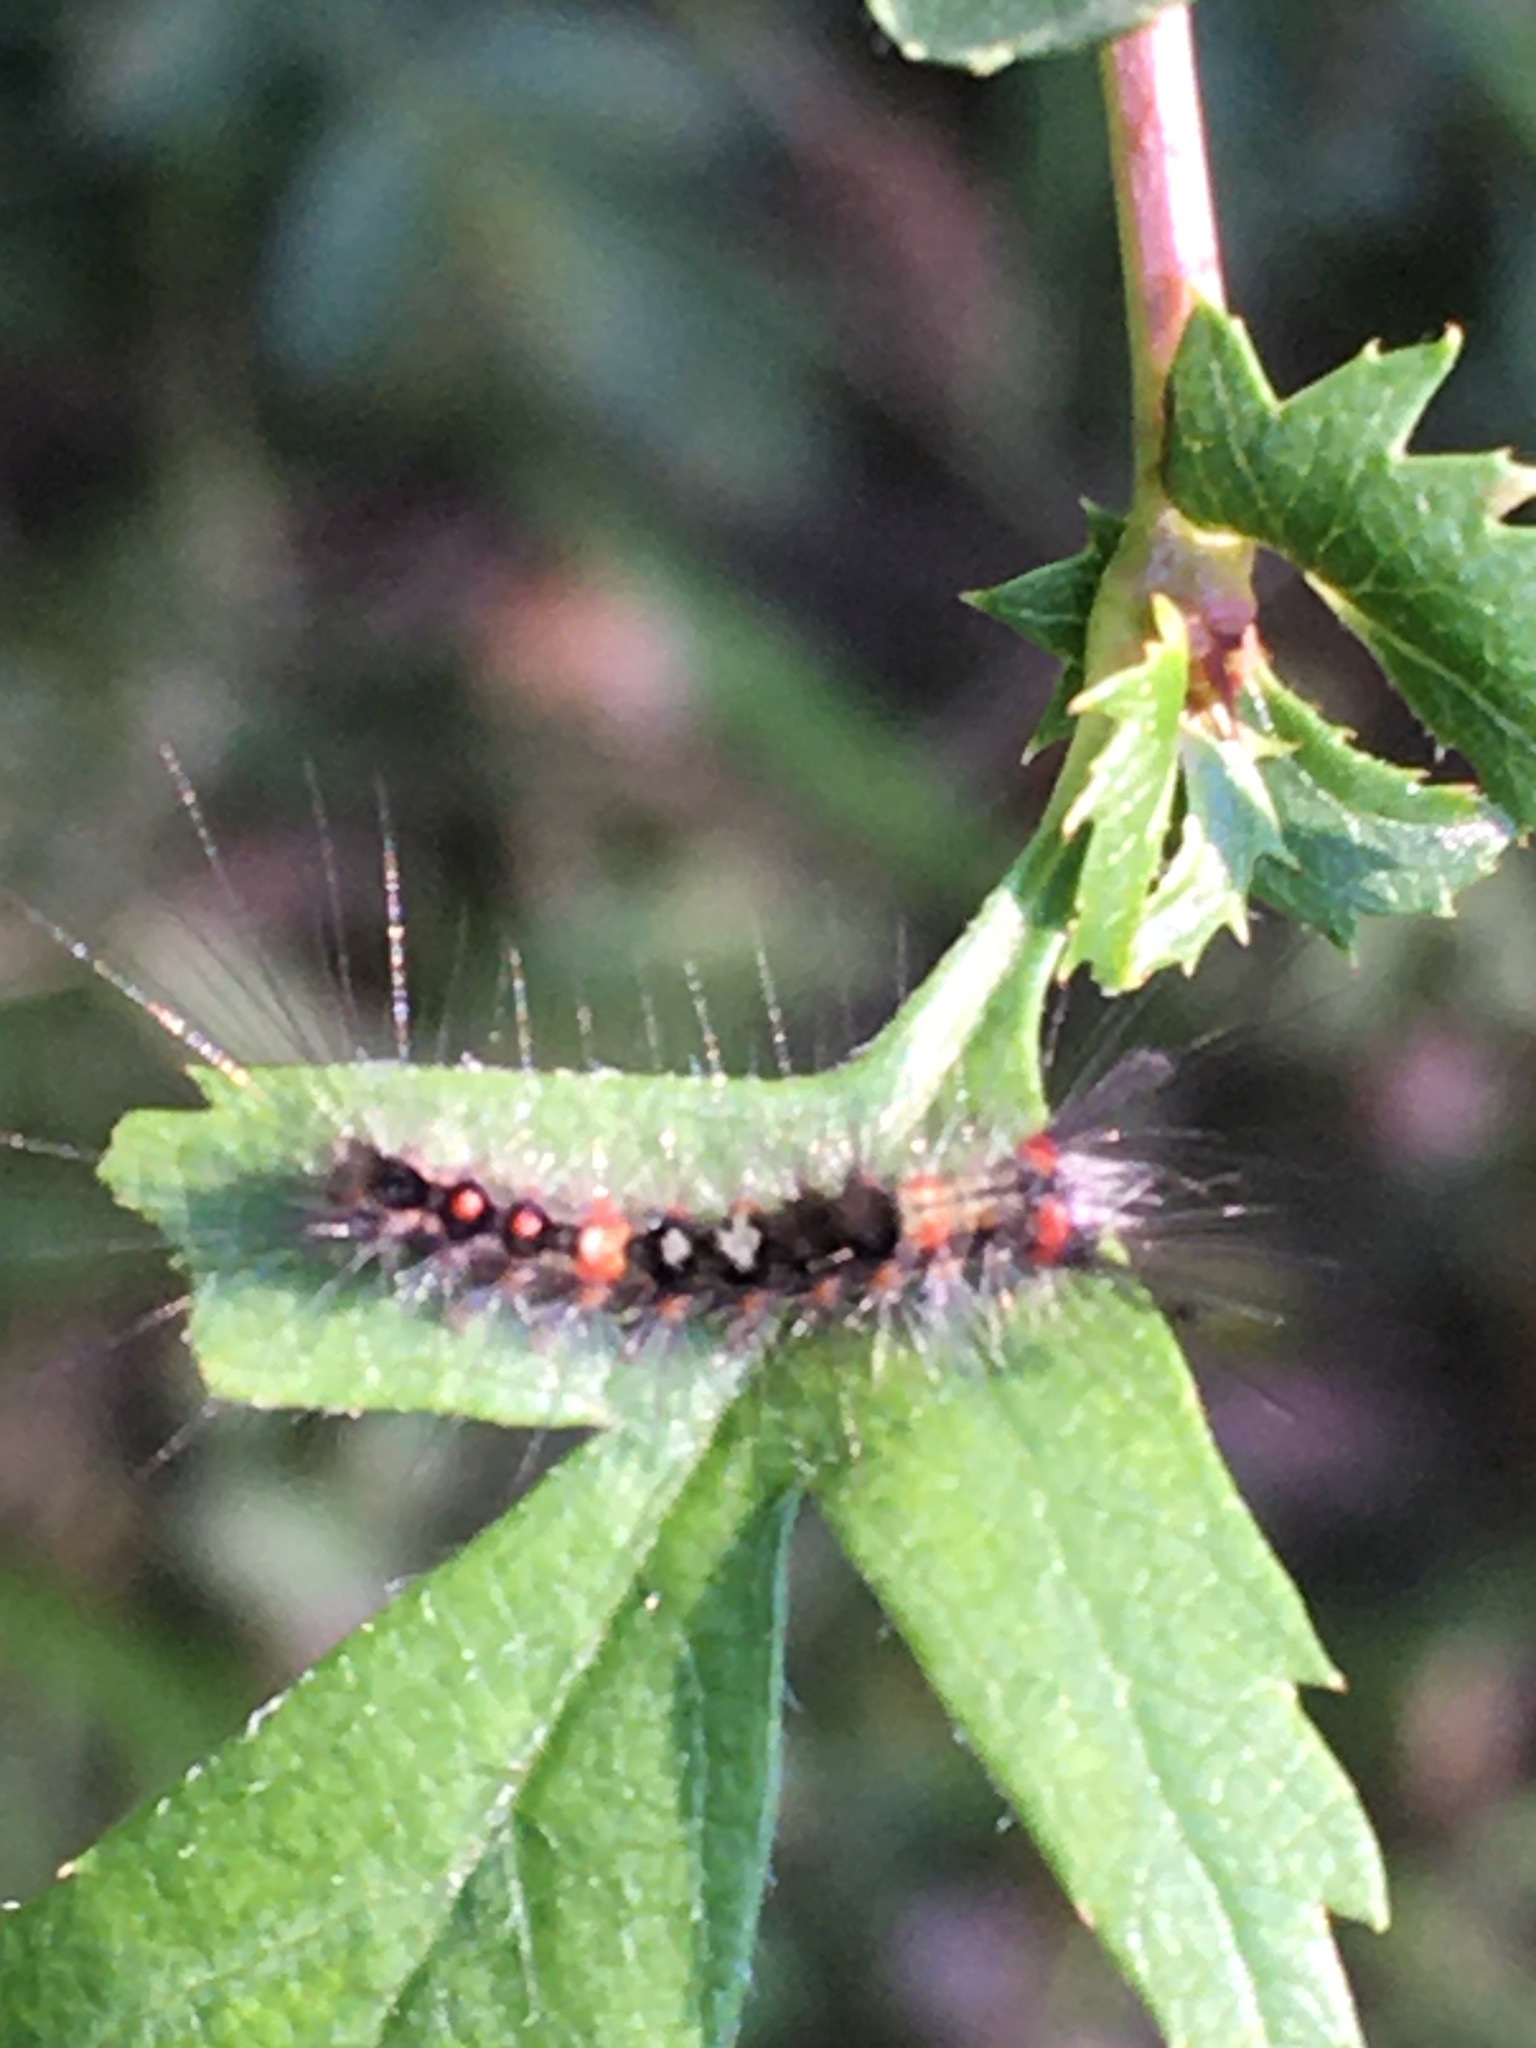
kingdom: Animalia
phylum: Arthropoda
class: Insecta
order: Lepidoptera
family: Erebidae
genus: Orgyia
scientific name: Orgyia antiqua
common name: Vapourer
